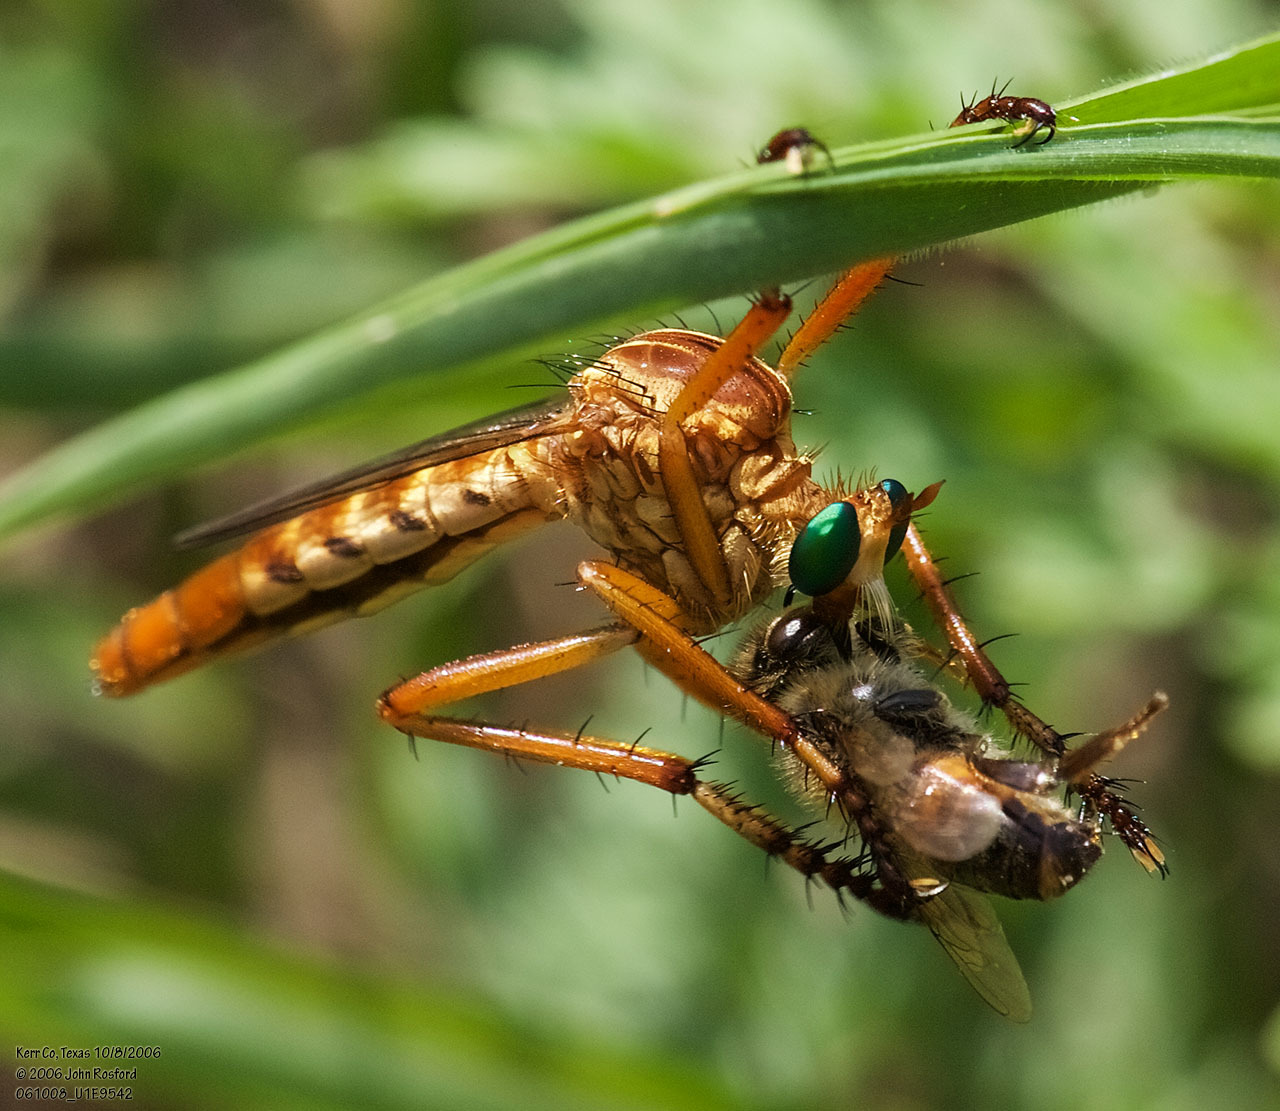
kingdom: Animalia
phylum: Arthropoda
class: Insecta
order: Diptera
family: Asilidae
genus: Diogmites
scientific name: Diogmites angustipennis
